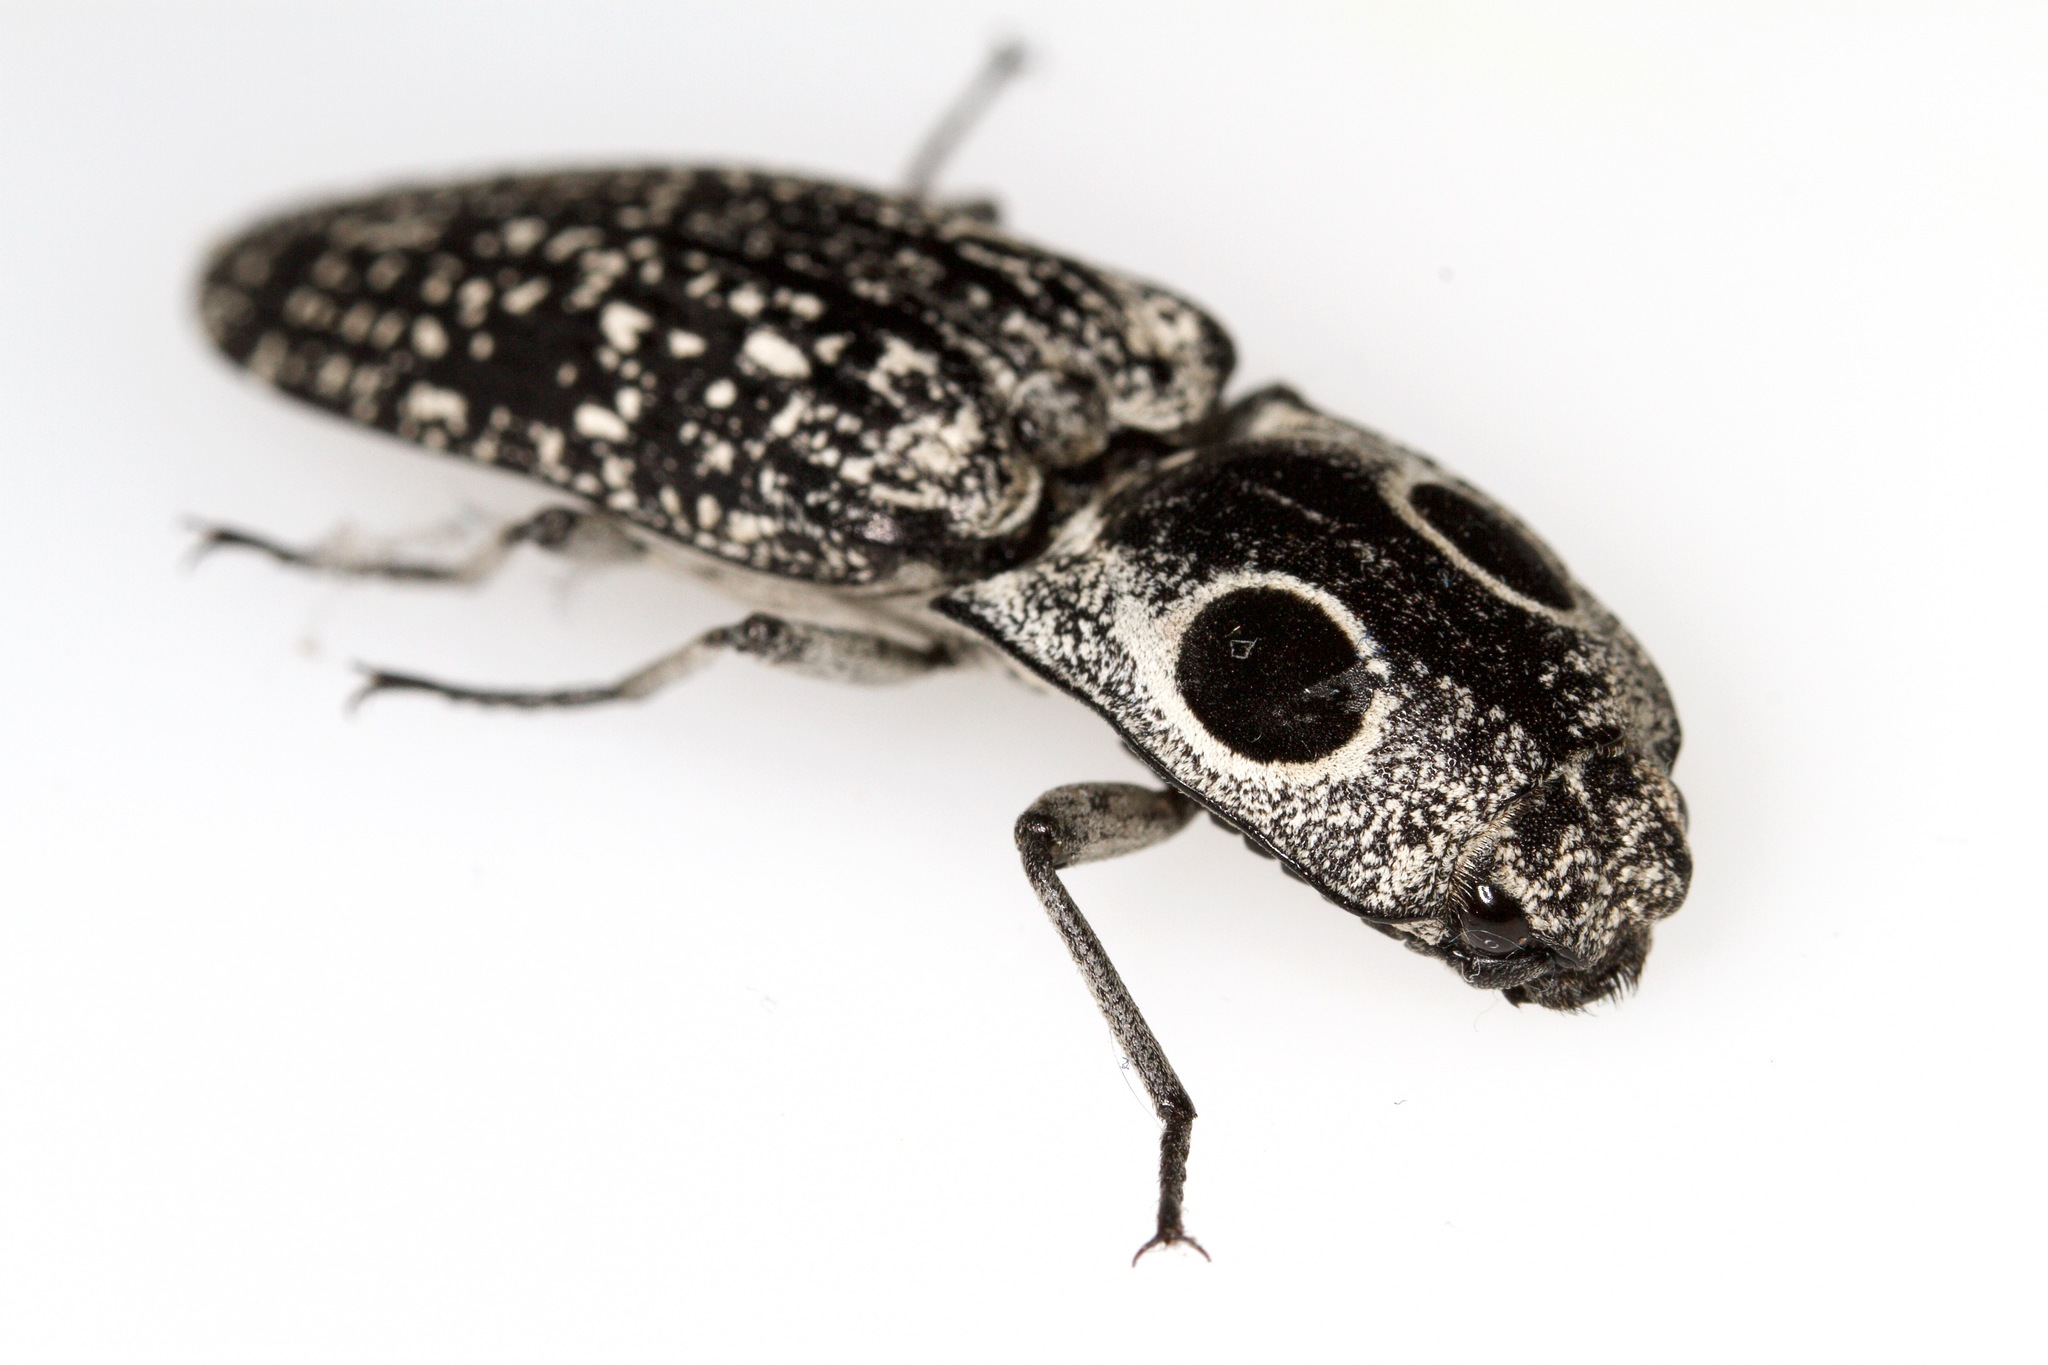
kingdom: Animalia
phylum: Arthropoda
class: Insecta
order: Coleoptera
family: Elateridae
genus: Alaus
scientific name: Alaus oculatus
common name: Eastern eyed click beetle
